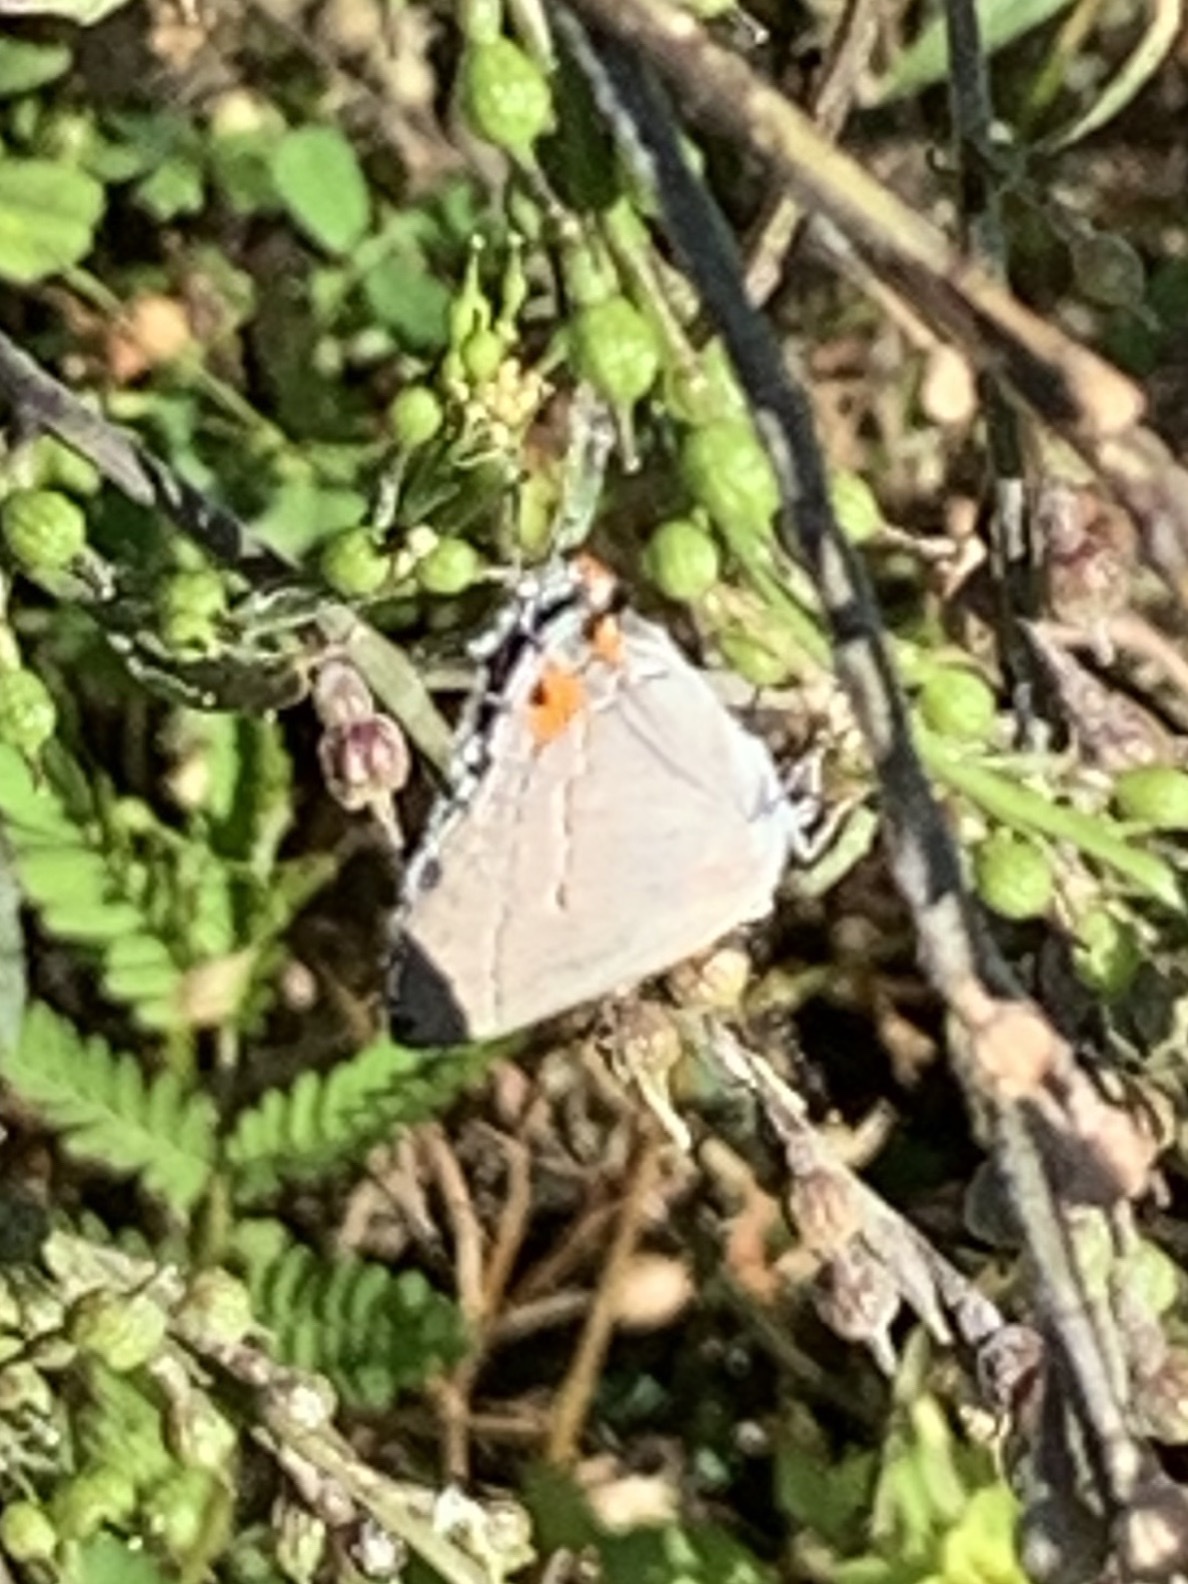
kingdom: Animalia
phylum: Arthropoda
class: Insecta
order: Lepidoptera
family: Lycaenidae
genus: Strymon
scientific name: Strymon melinus
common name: Gray hairstreak
